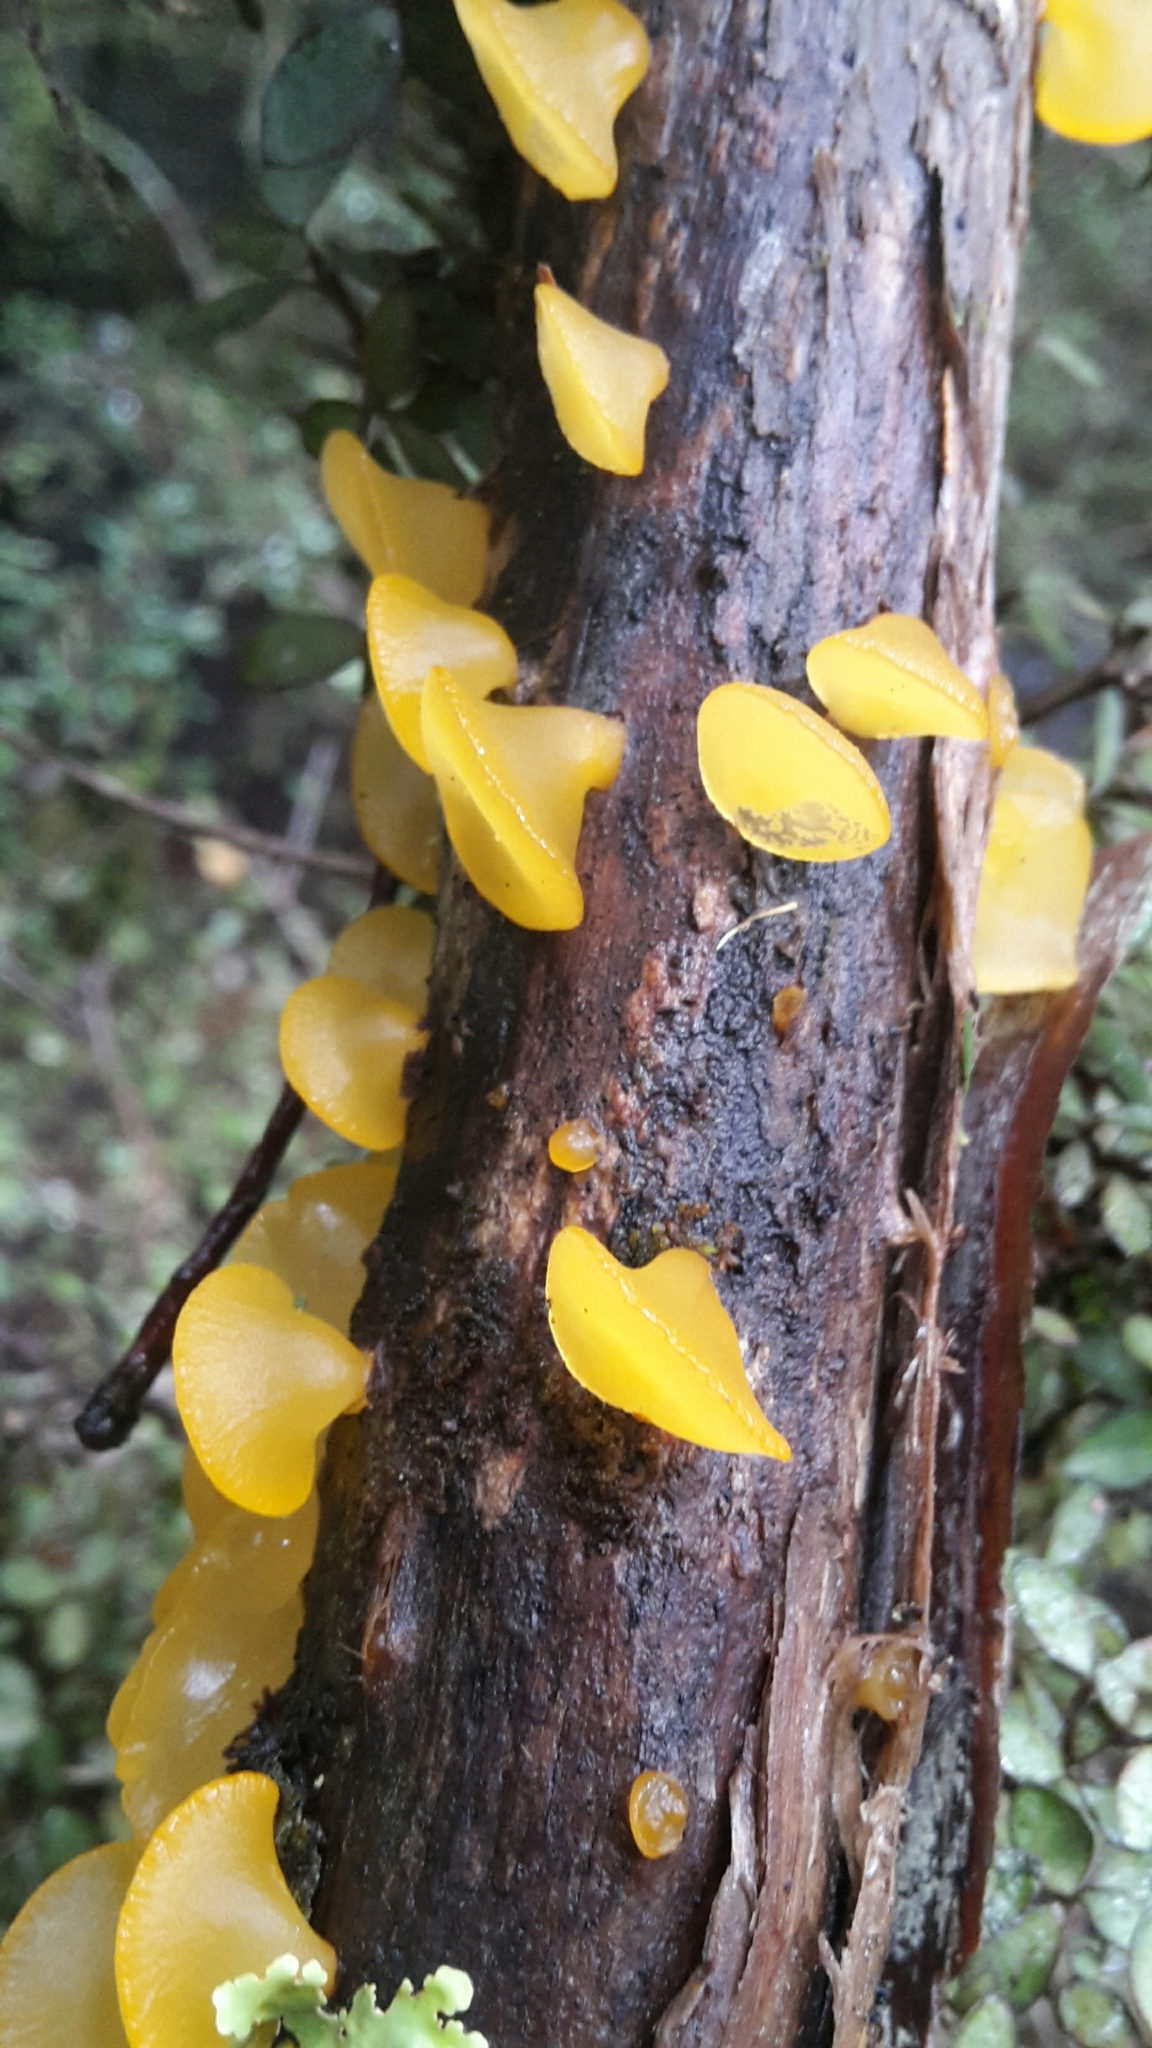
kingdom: Fungi
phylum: Basidiomycota
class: Dacrymycetes
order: Dacrymycetales
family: Dacrymycetaceae
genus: Heterotextus
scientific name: Heterotextus miltinus
